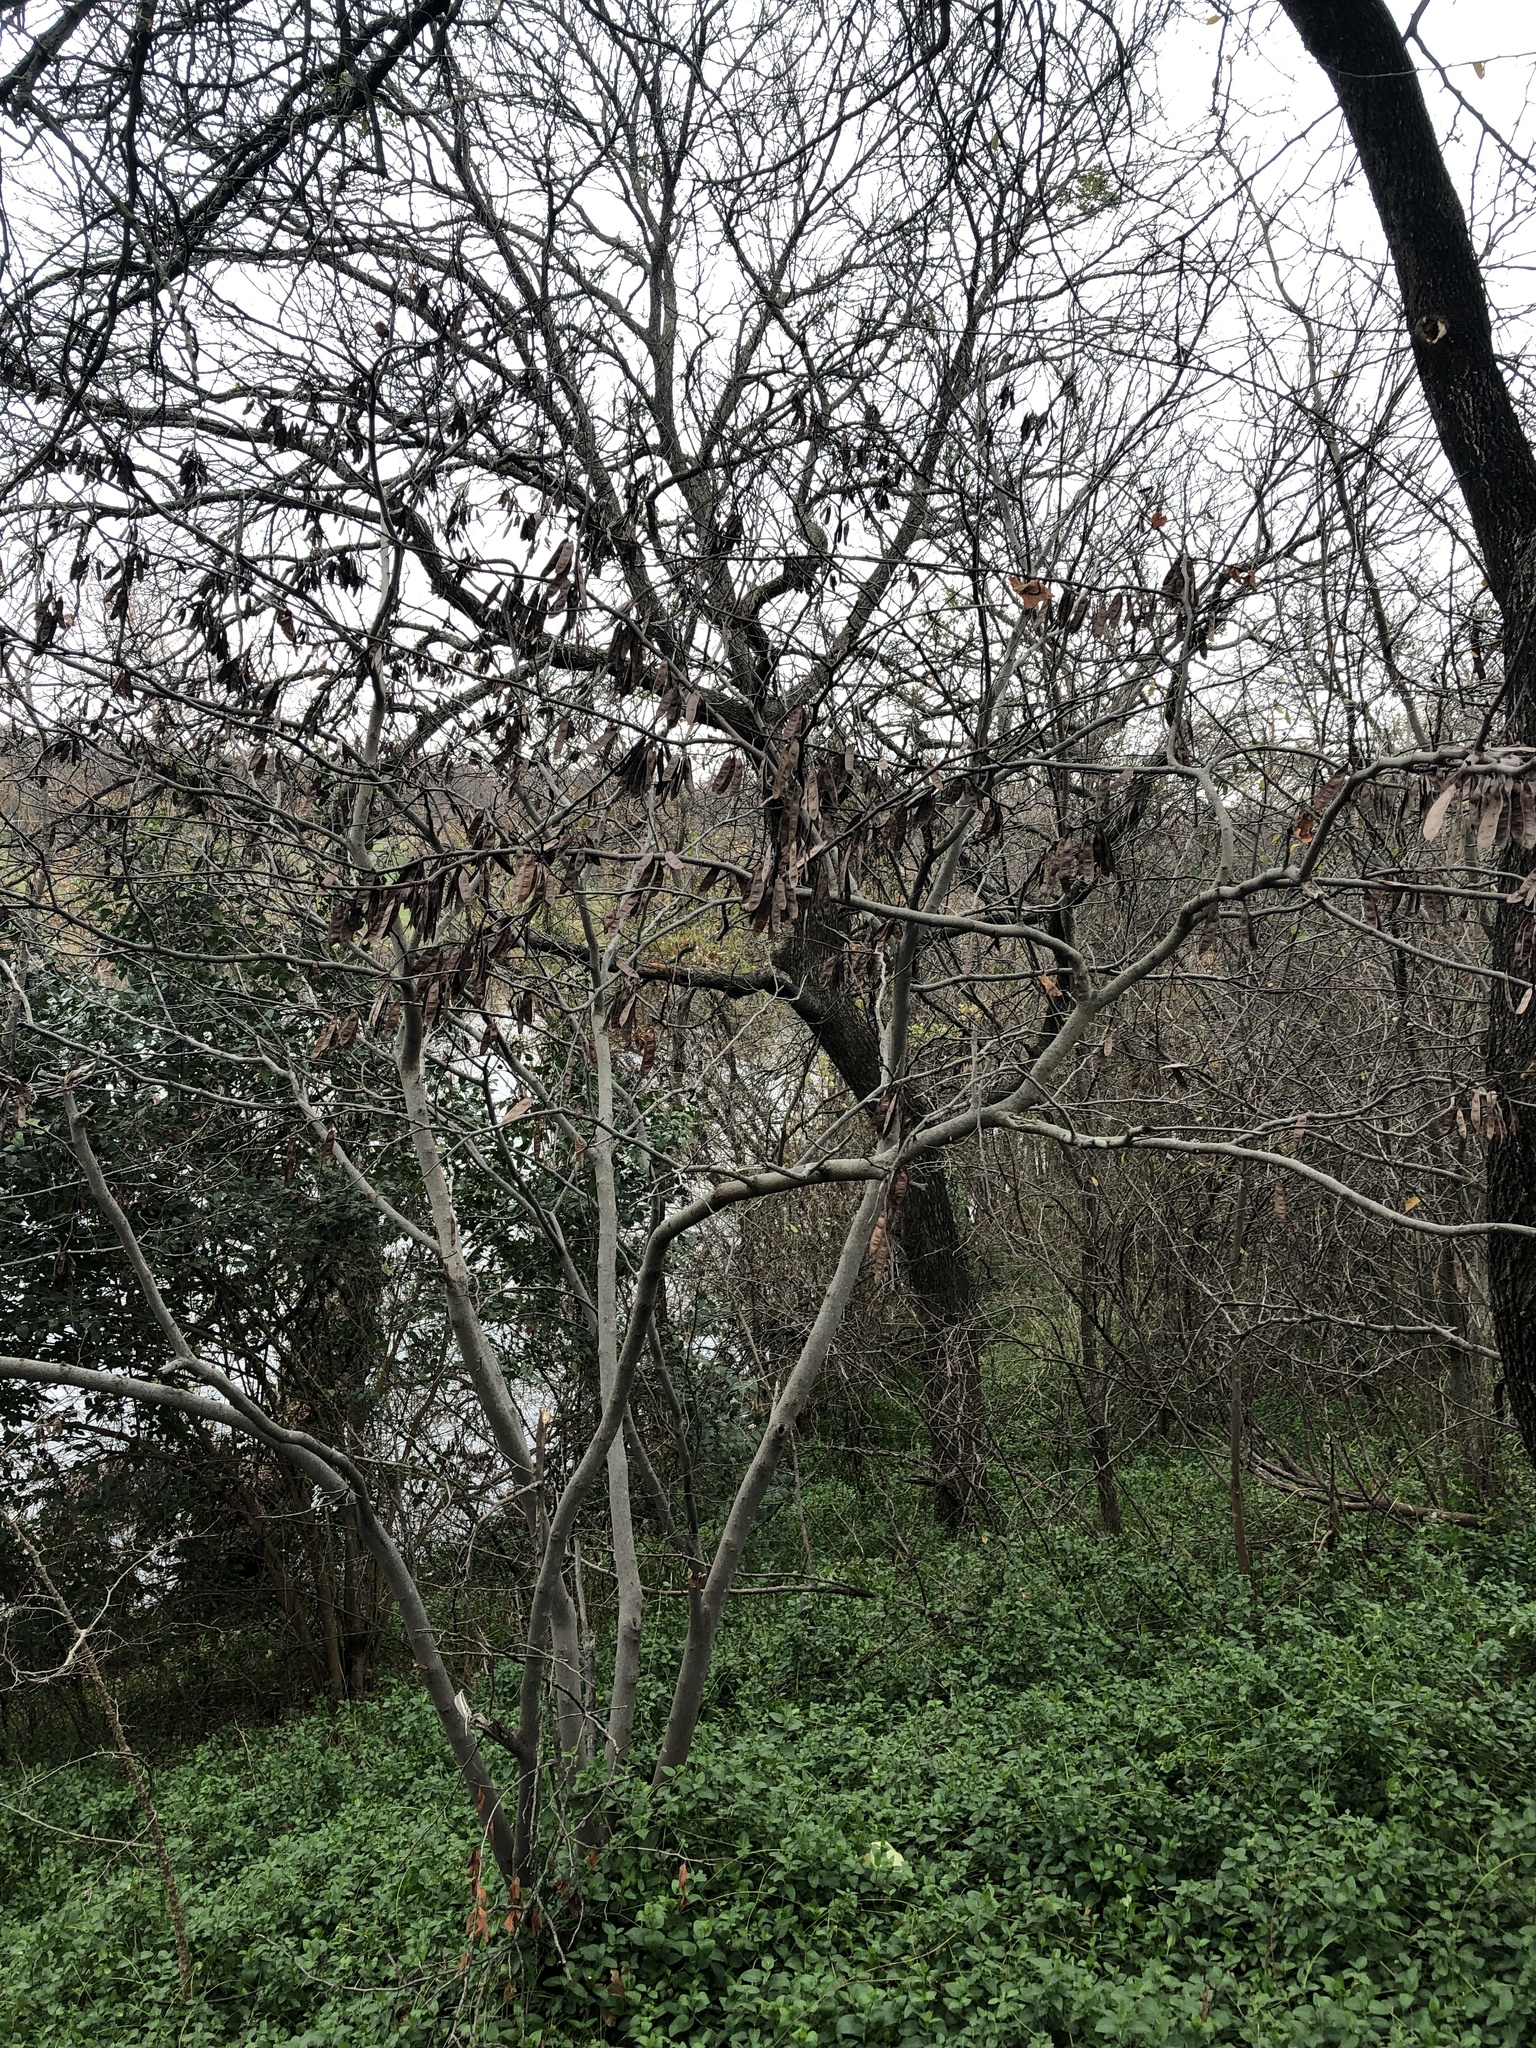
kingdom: Plantae
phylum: Tracheophyta
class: Magnoliopsida
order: Fabales
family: Fabaceae
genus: Cercis
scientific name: Cercis canadensis
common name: Eastern redbud
